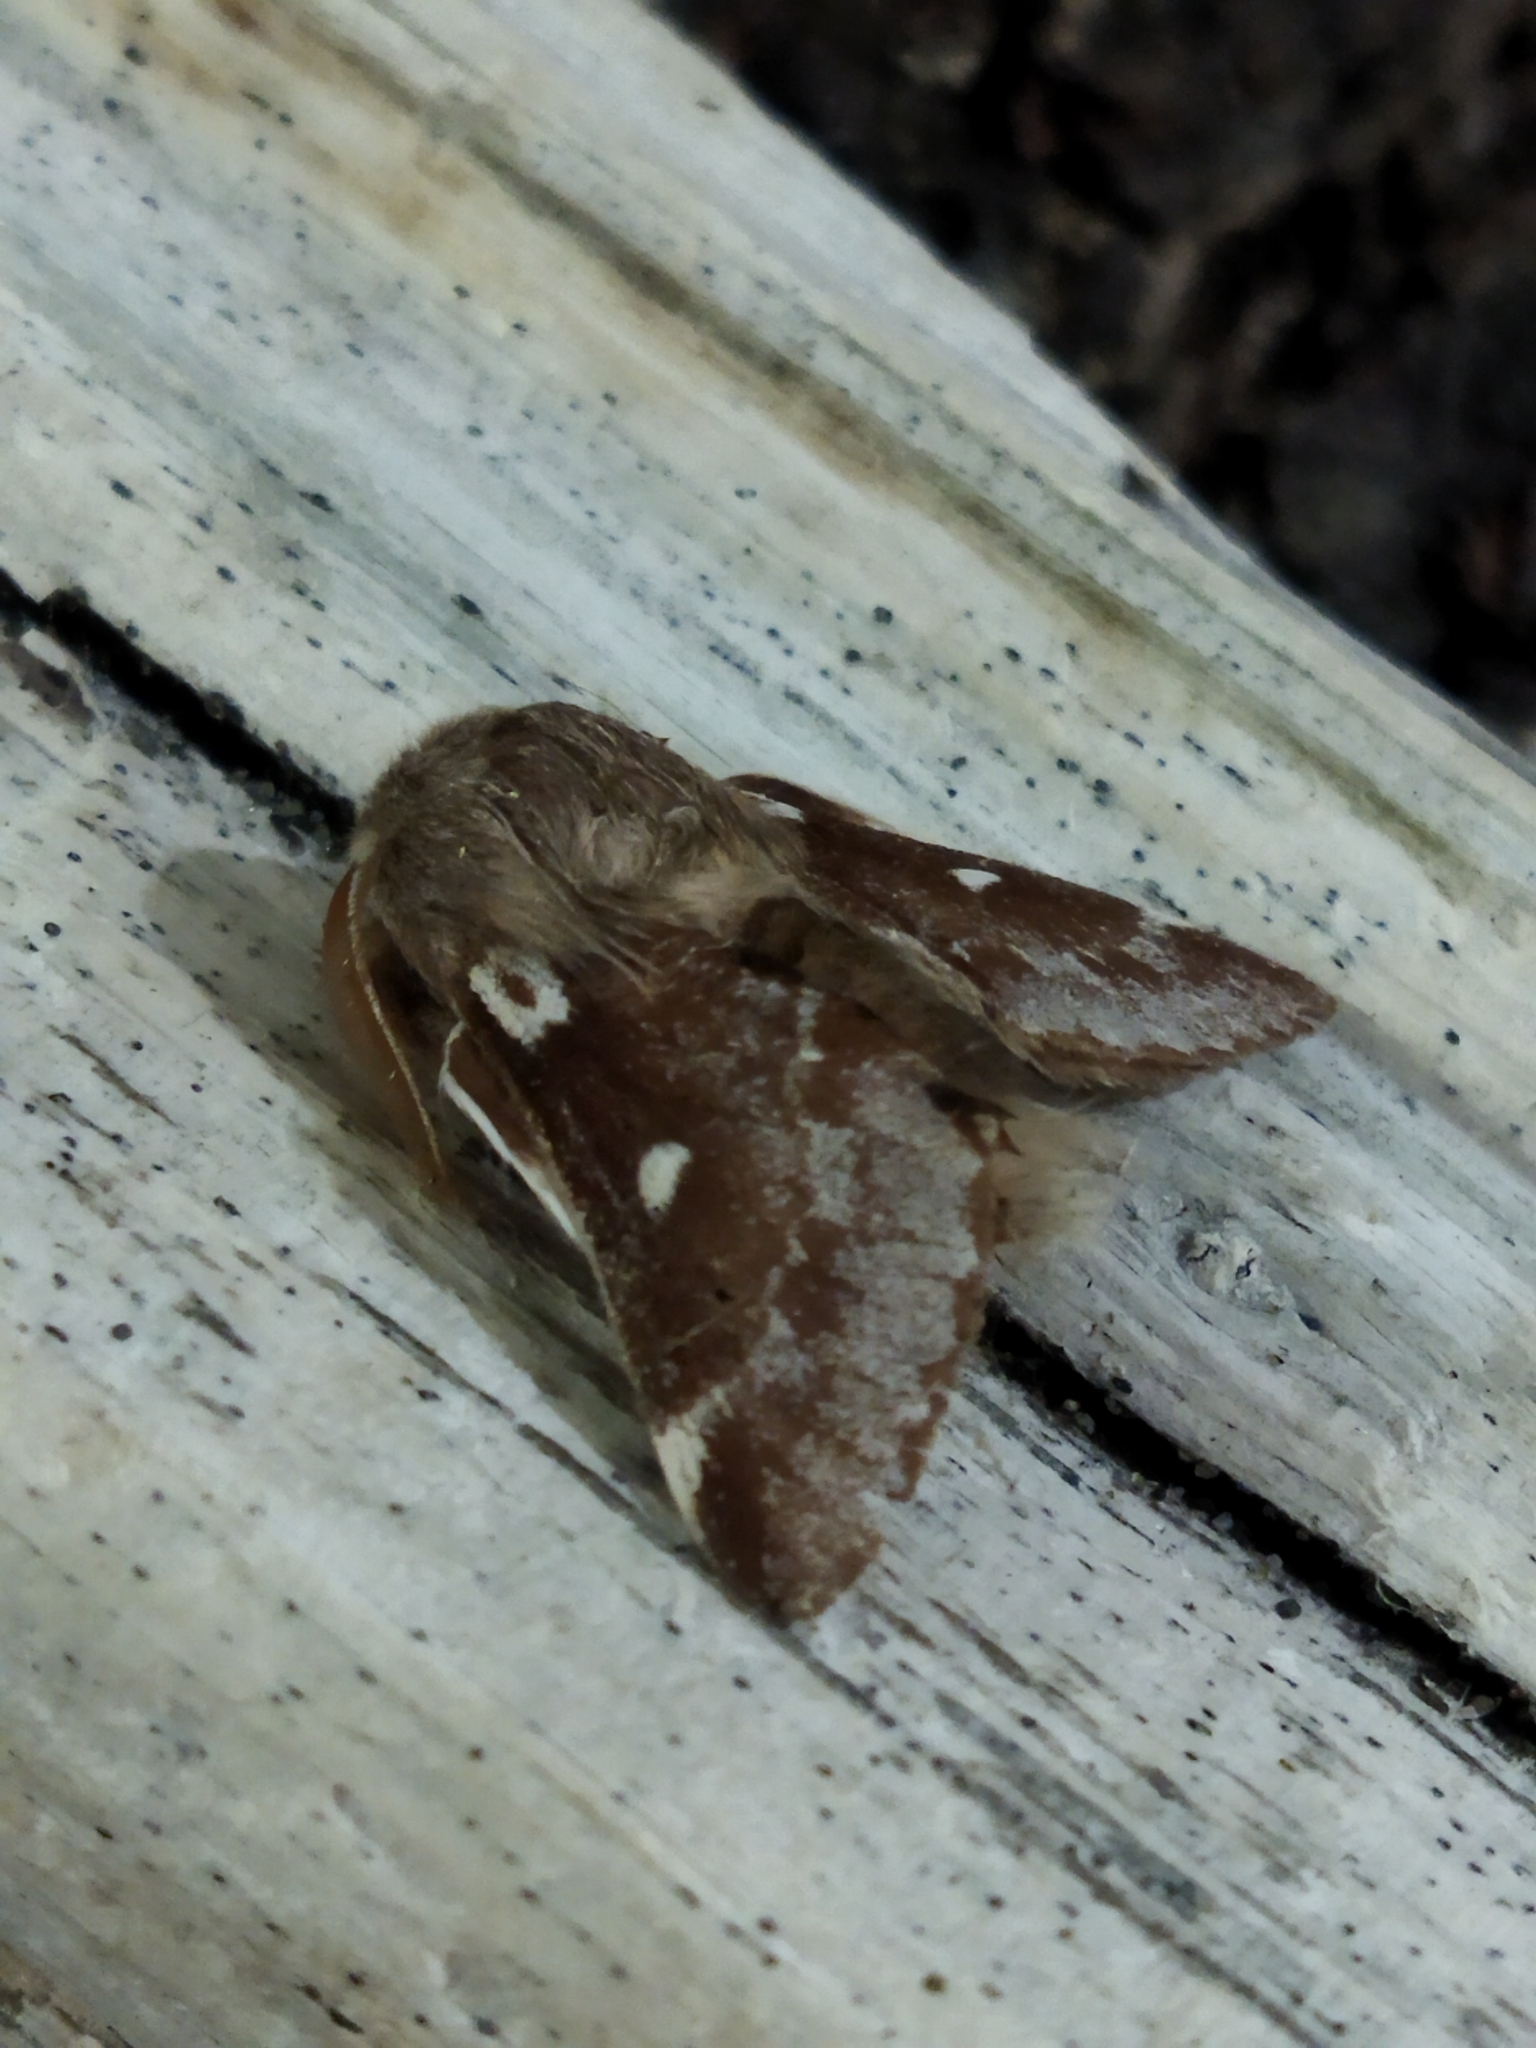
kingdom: Animalia
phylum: Arthropoda
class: Insecta
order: Lepidoptera
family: Lasiocampidae
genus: Eriogaster
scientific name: Eriogaster lanestris
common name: Small eggar
